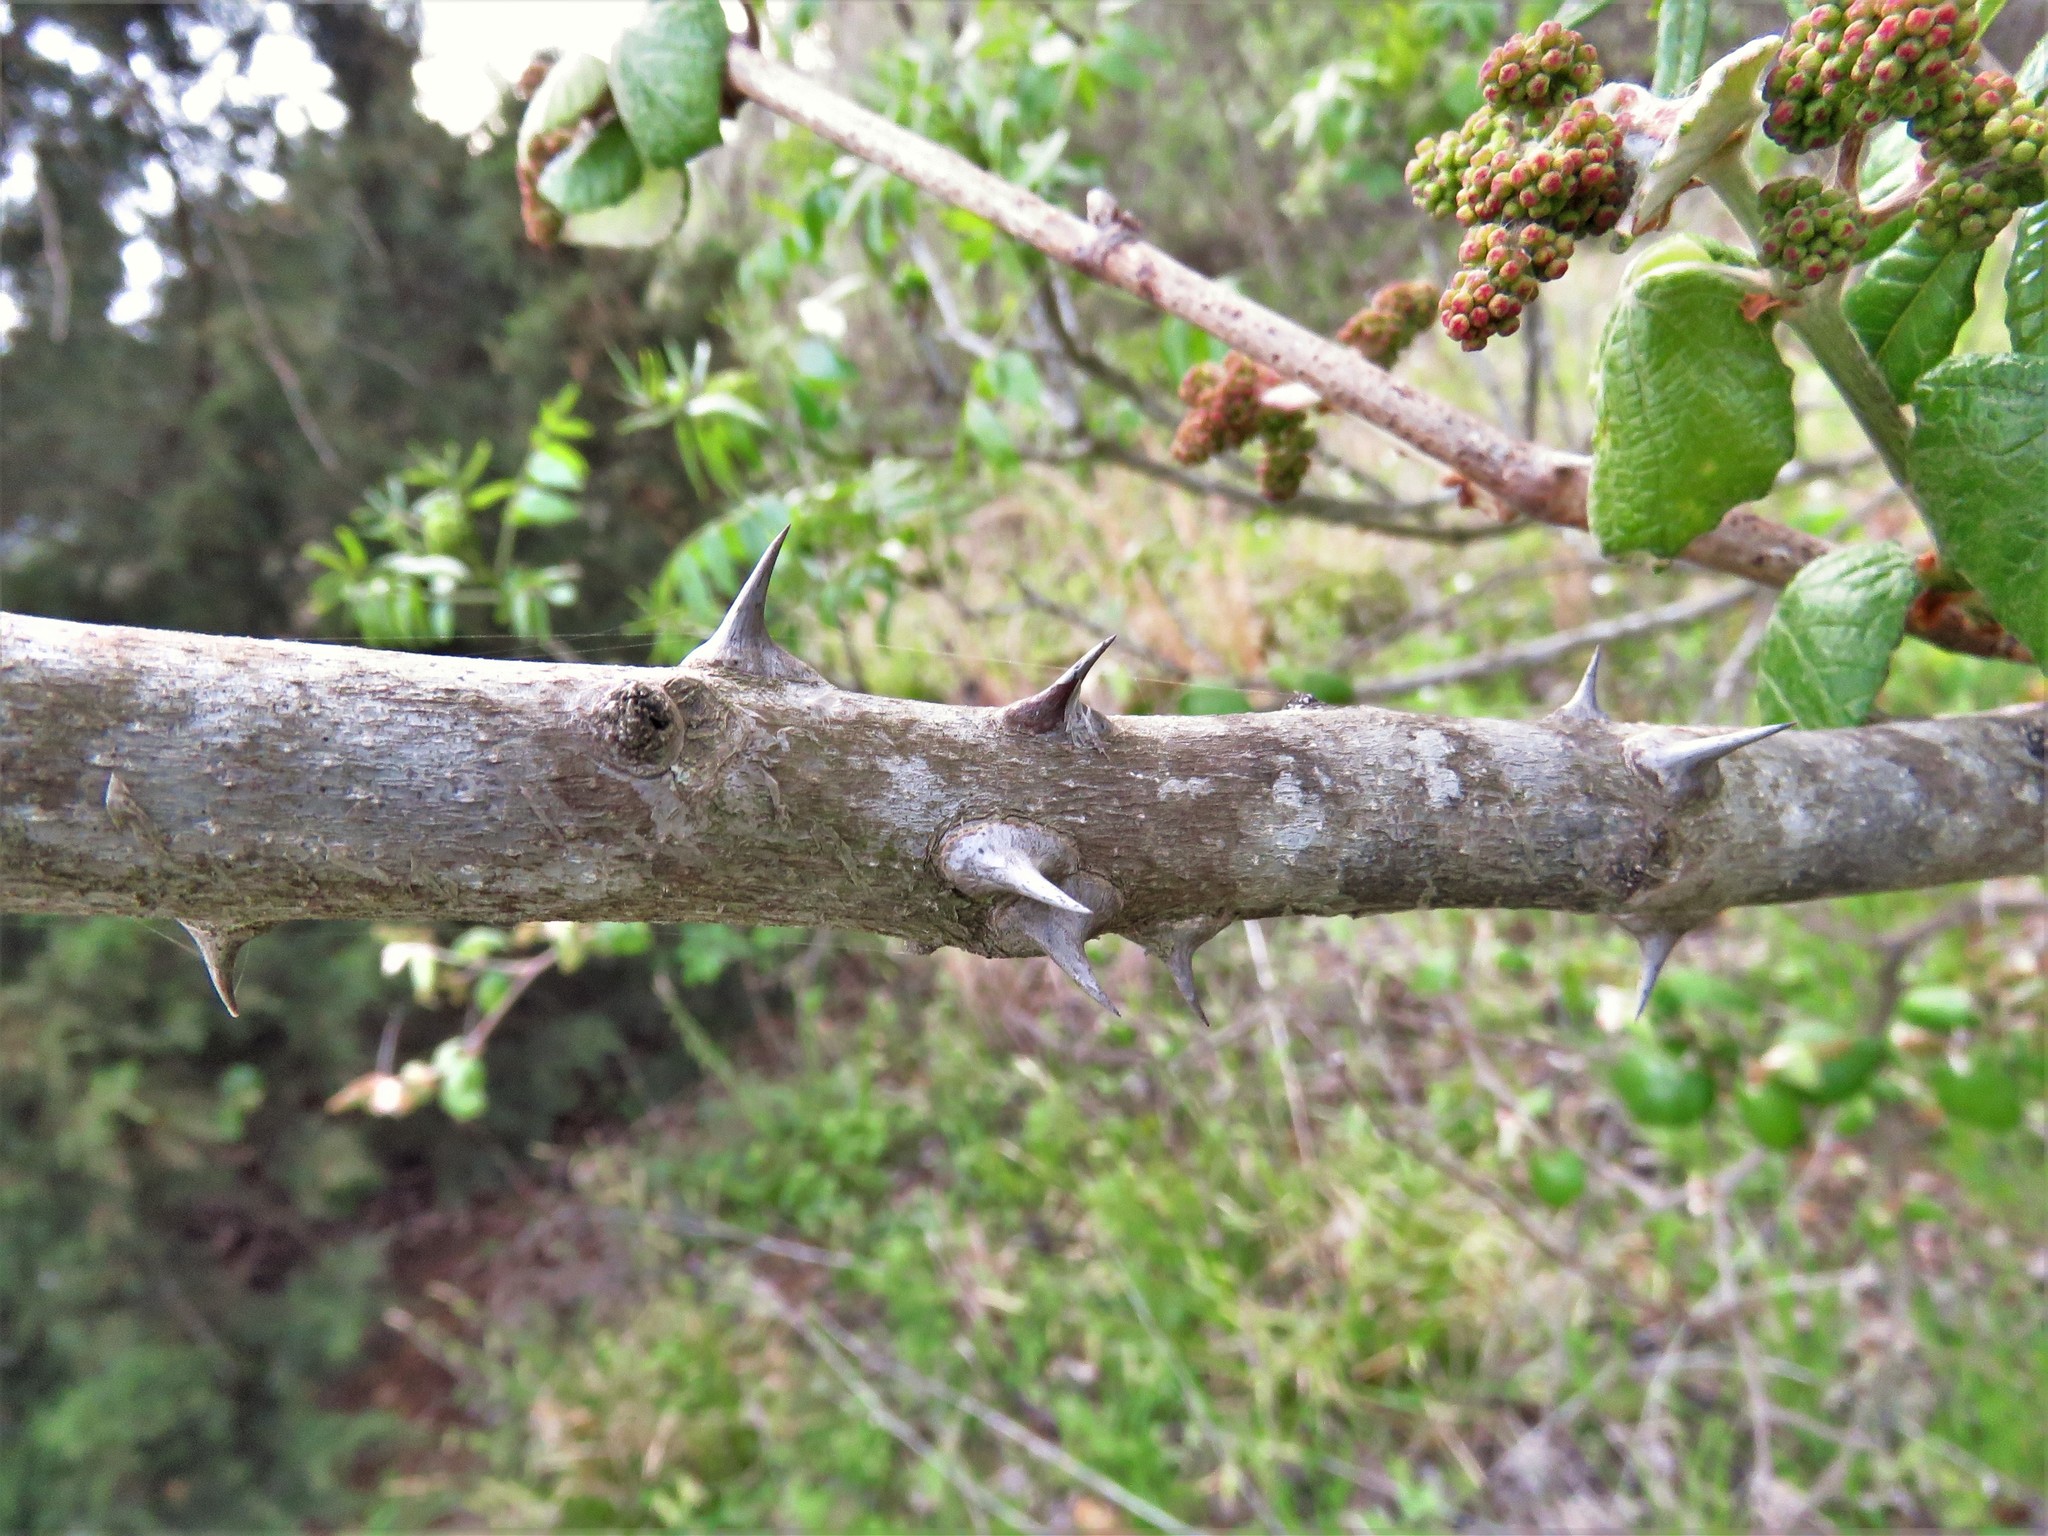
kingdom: Plantae
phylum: Tracheophyta
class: Magnoliopsida
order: Sapindales
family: Rutaceae
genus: Zanthoxylum
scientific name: Zanthoxylum clava-herculis
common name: Hercules'-club
